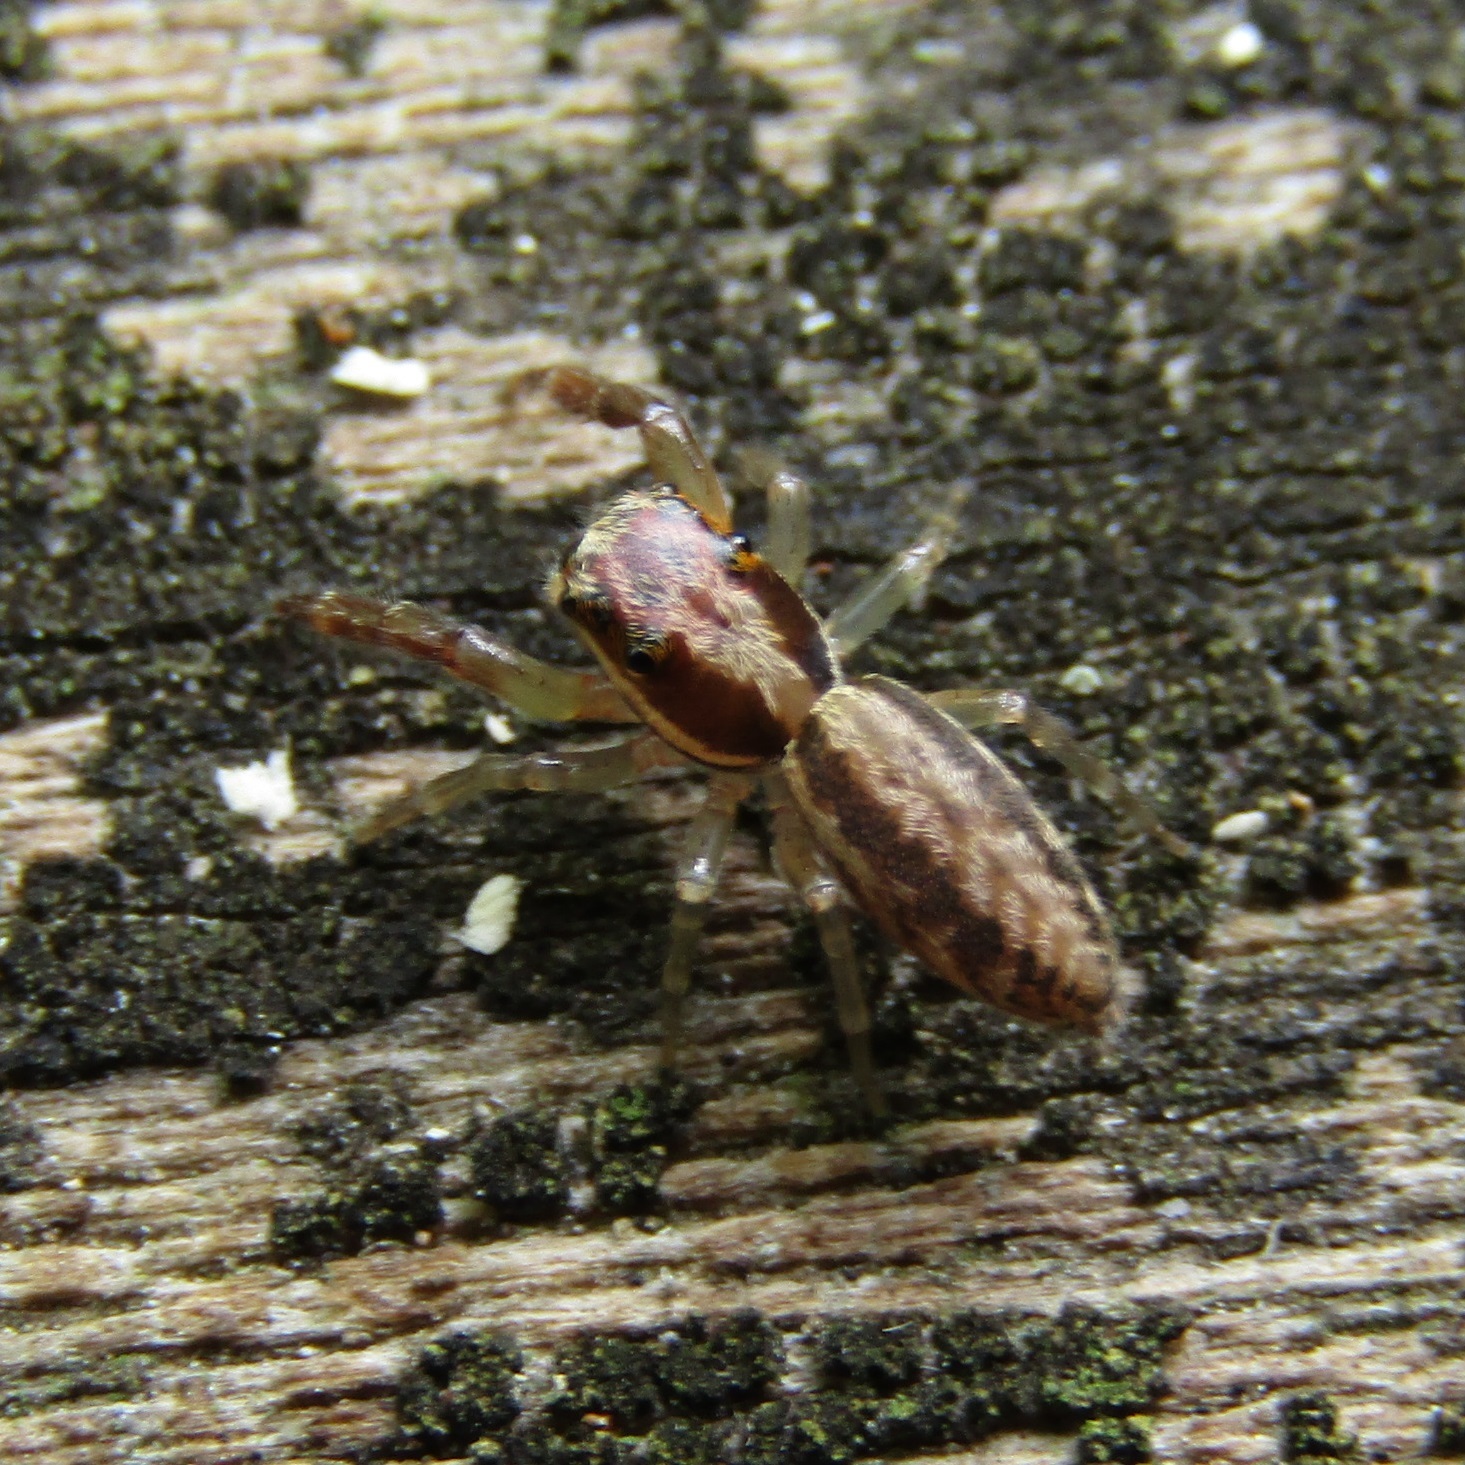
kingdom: Animalia
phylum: Arthropoda
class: Arachnida
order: Araneae
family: Salticidae
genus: Trite
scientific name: Trite mustilina
